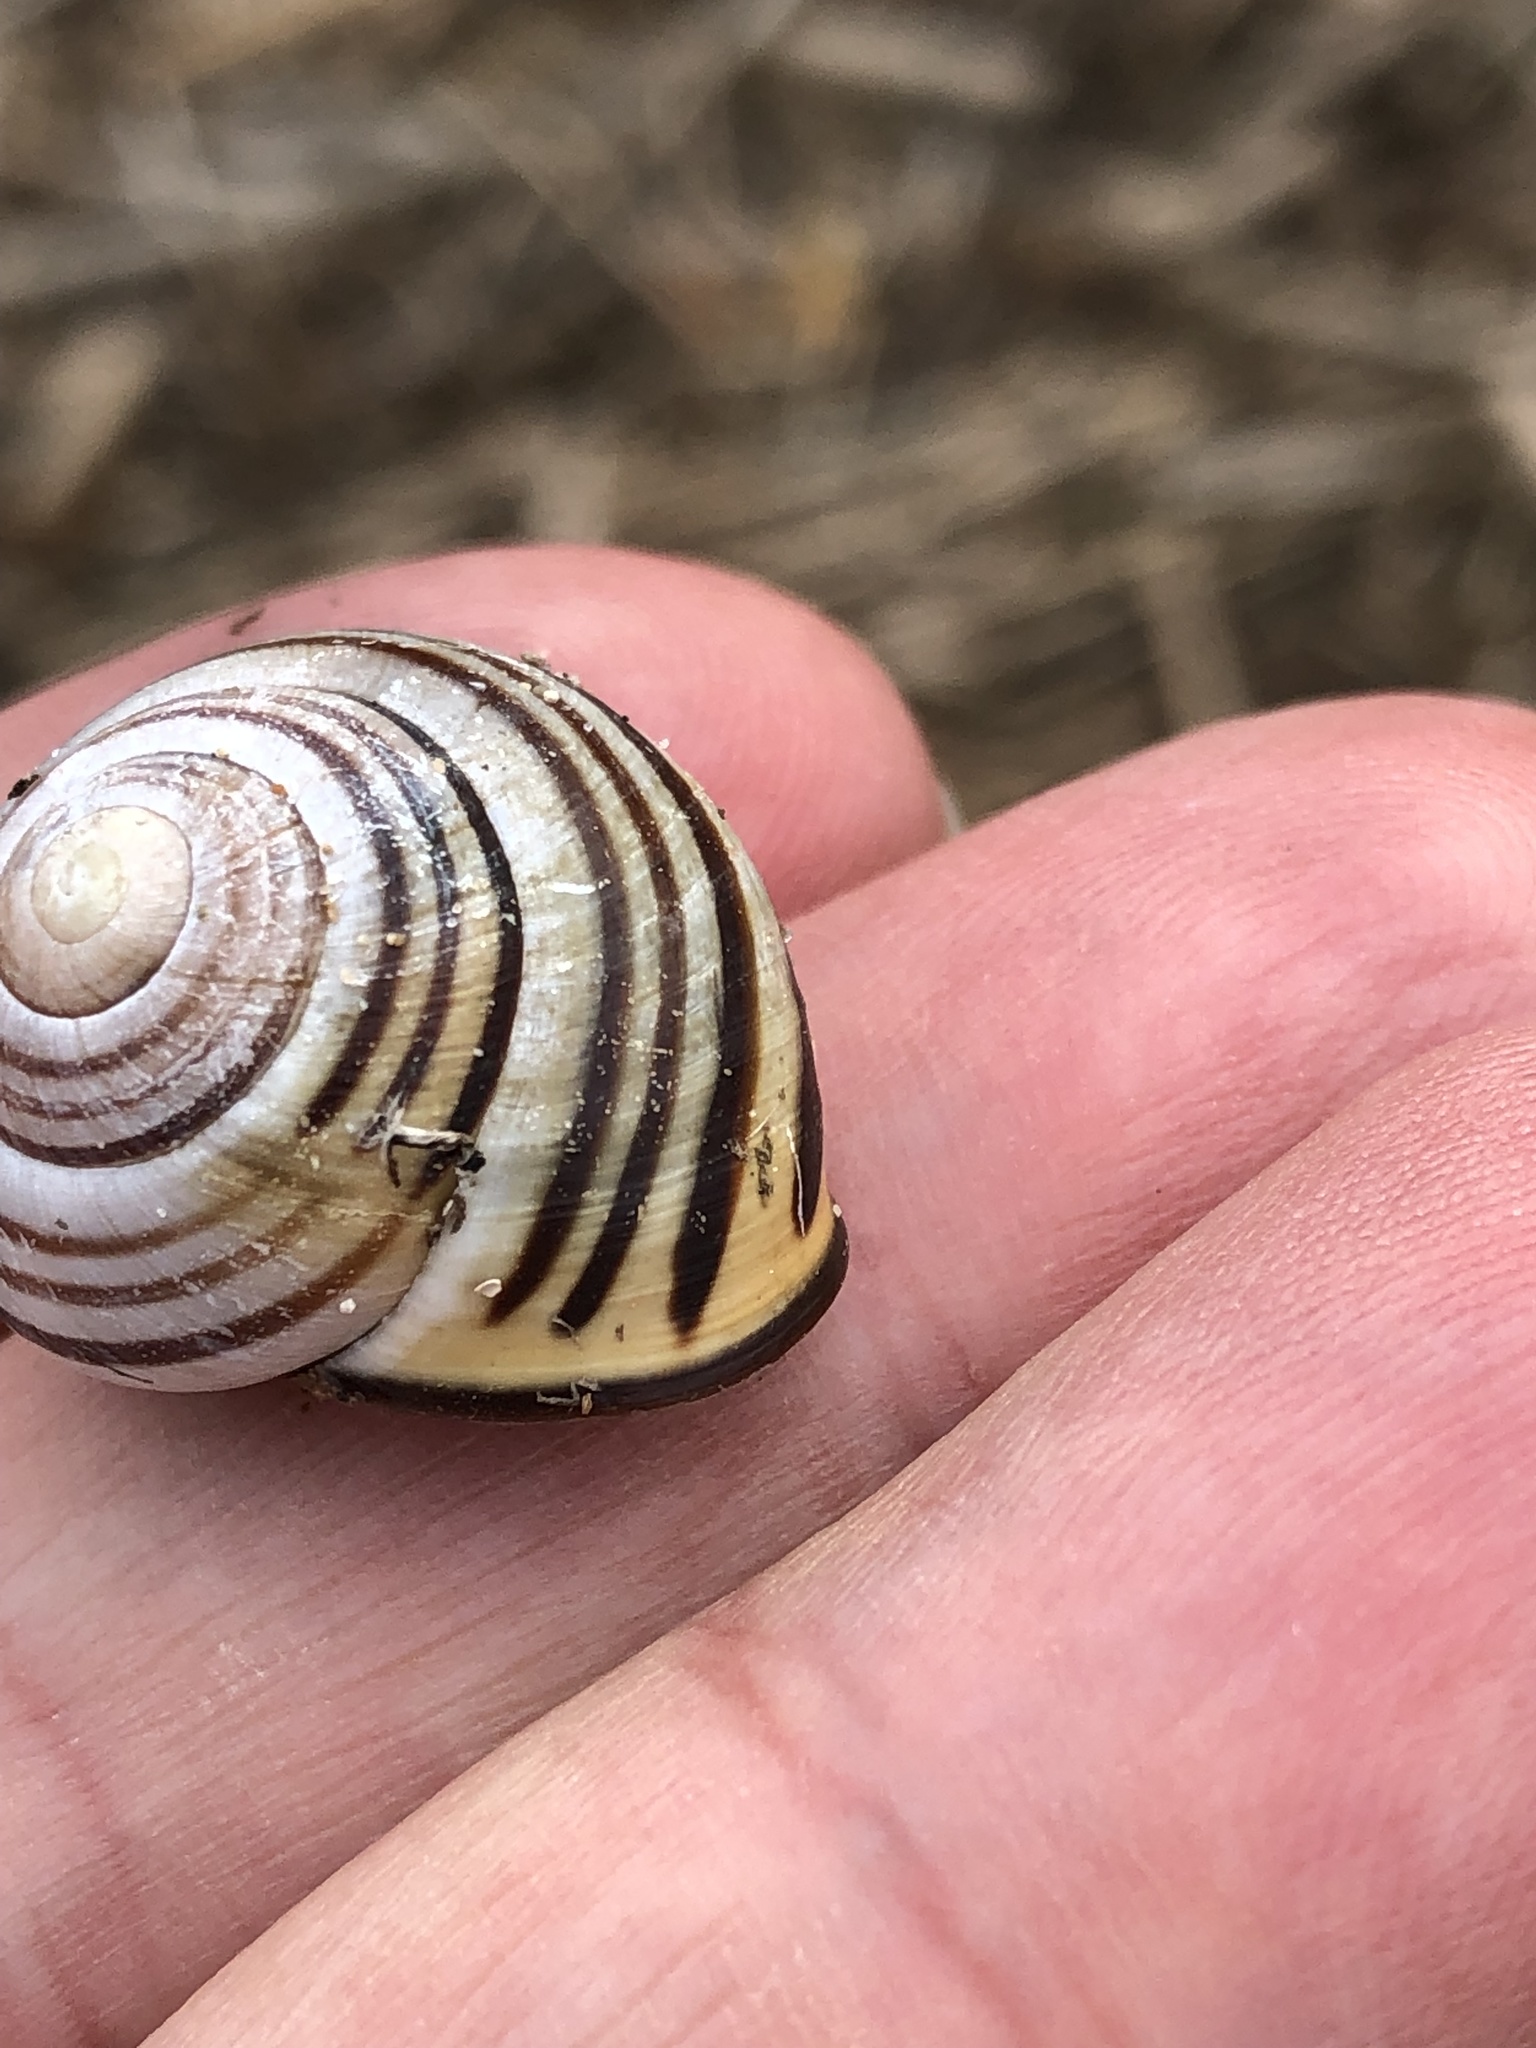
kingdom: Animalia
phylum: Mollusca
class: Gastropoda
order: Stylommatophora
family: Helicidae
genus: Cepaea
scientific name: Cepaea nemoralis
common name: Grovesnail
